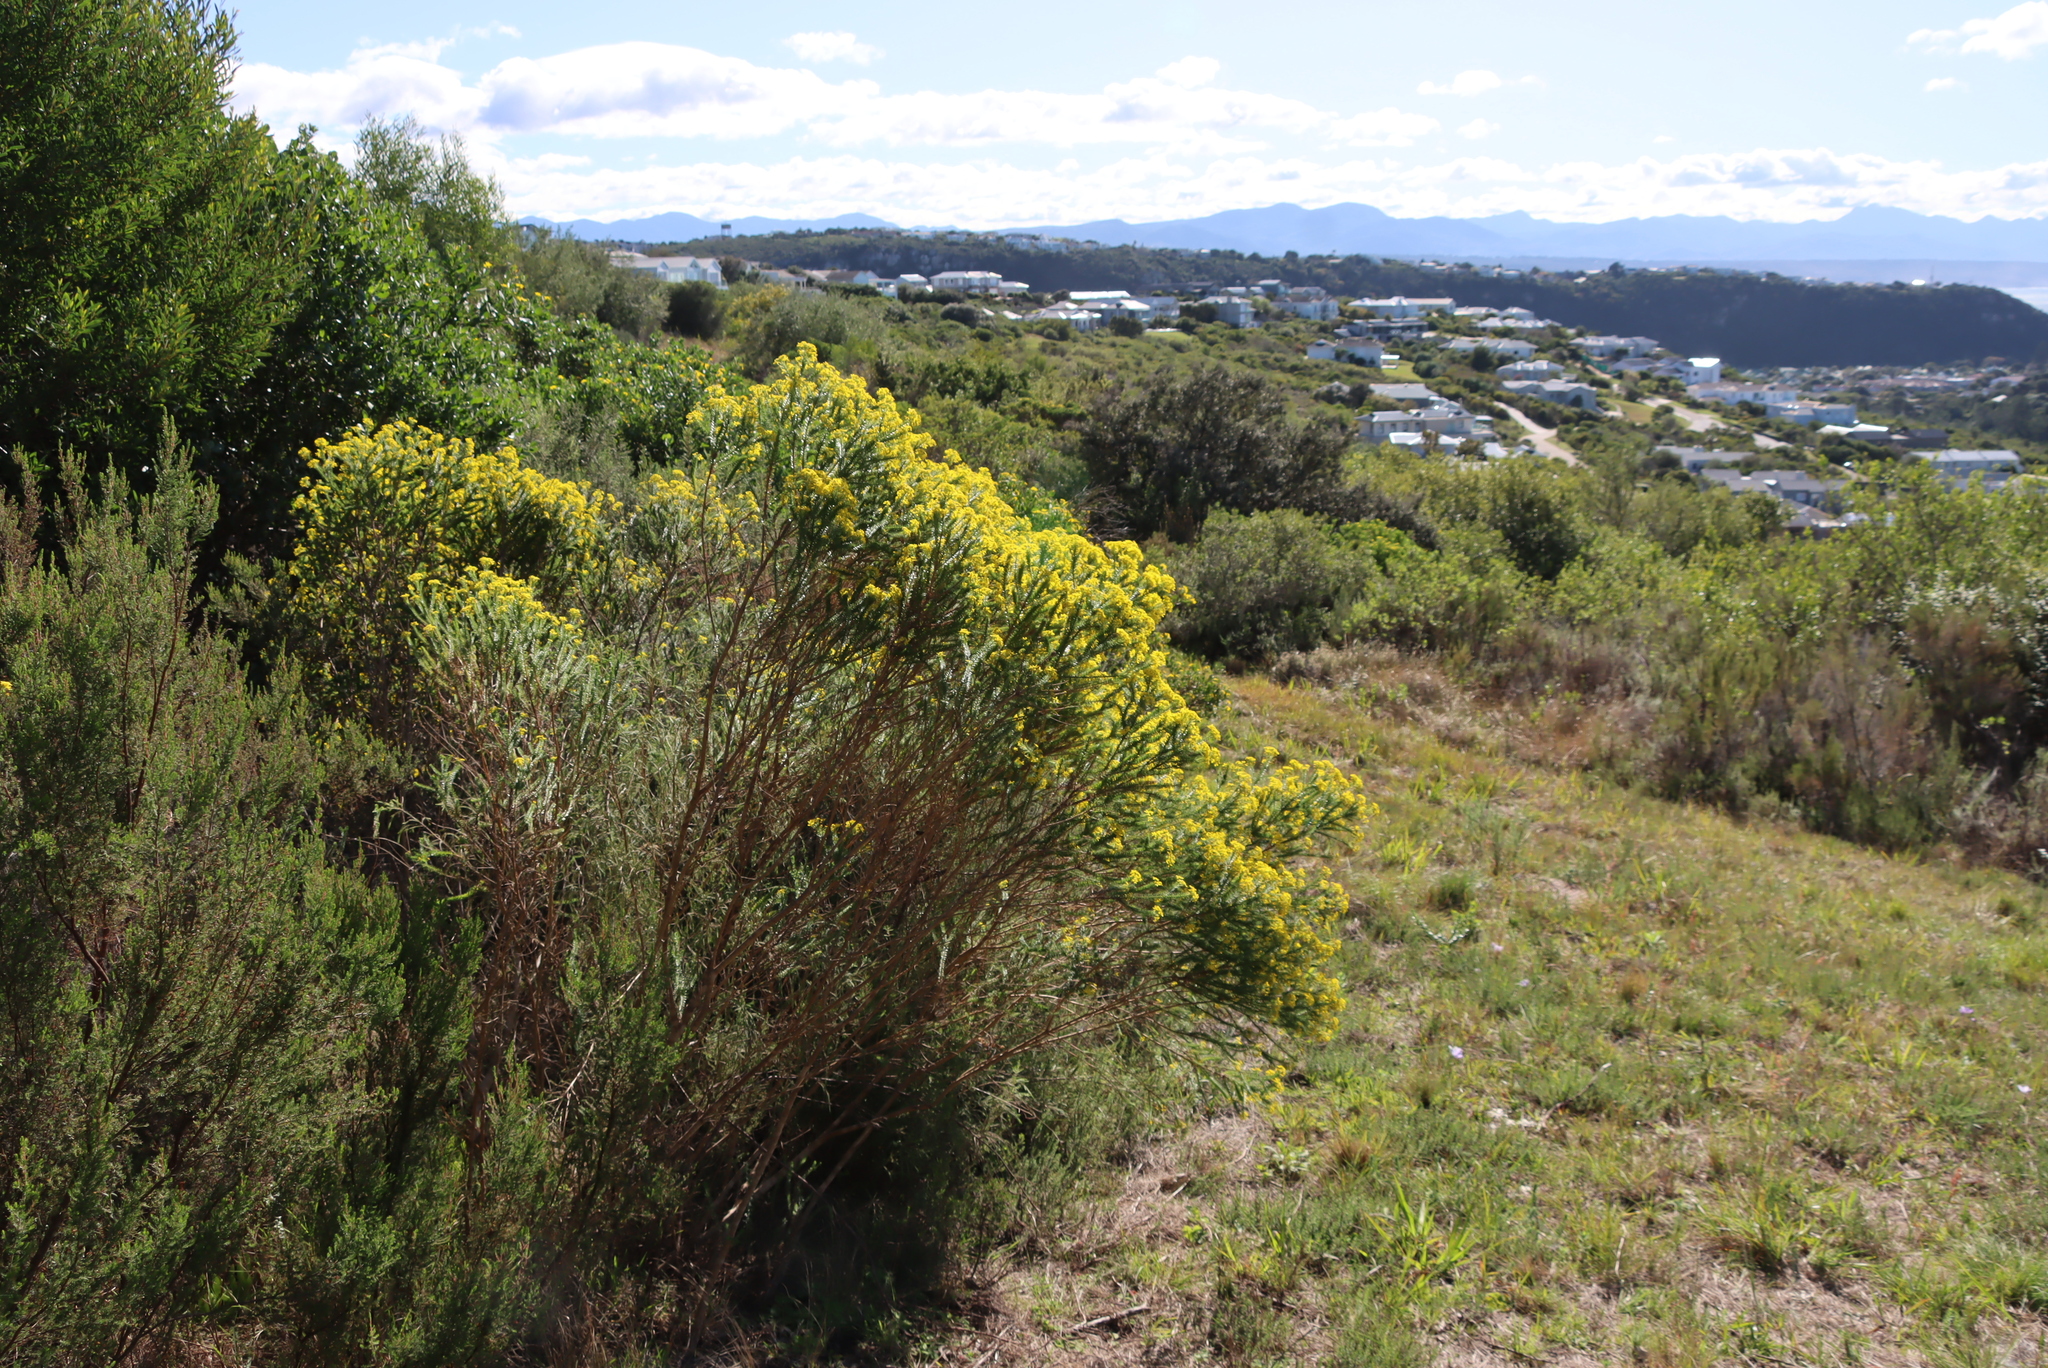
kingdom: Plantae
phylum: Tracheophyta
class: Magnoliopsida
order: Asterales
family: Asteraceae
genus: Euryops
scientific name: Euryops virgineus
